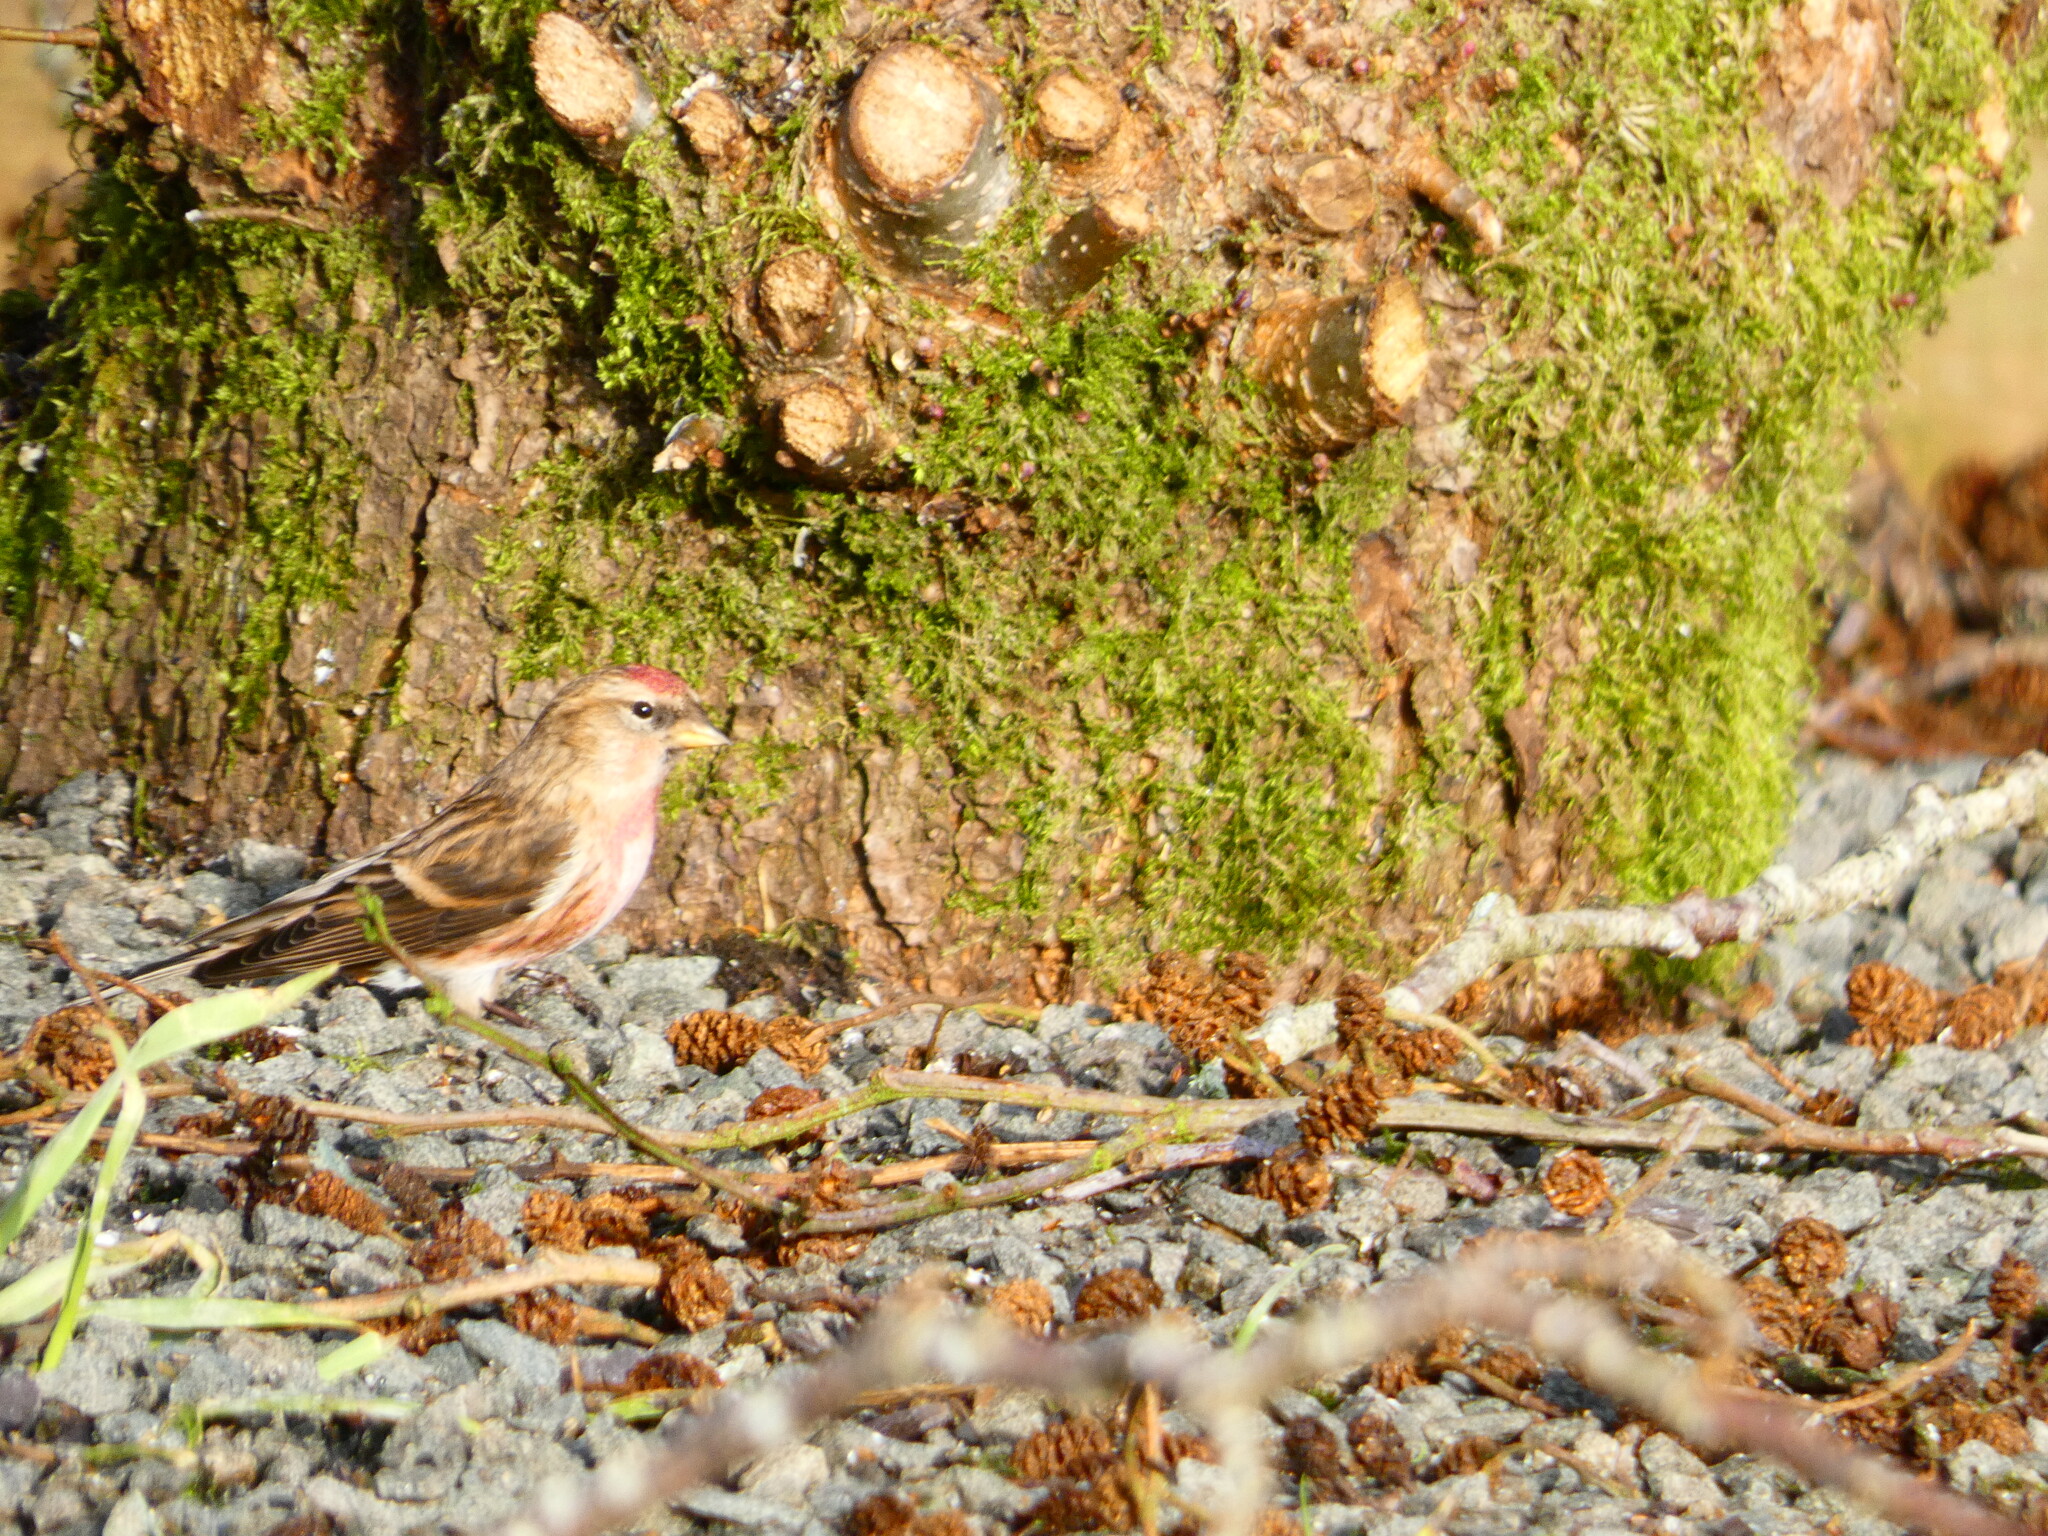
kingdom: Animalia
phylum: Chordata
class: Aves
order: Passeriformes
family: Fringillidae
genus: Acanthis
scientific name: Acanthis flammea
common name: Common redpoll
